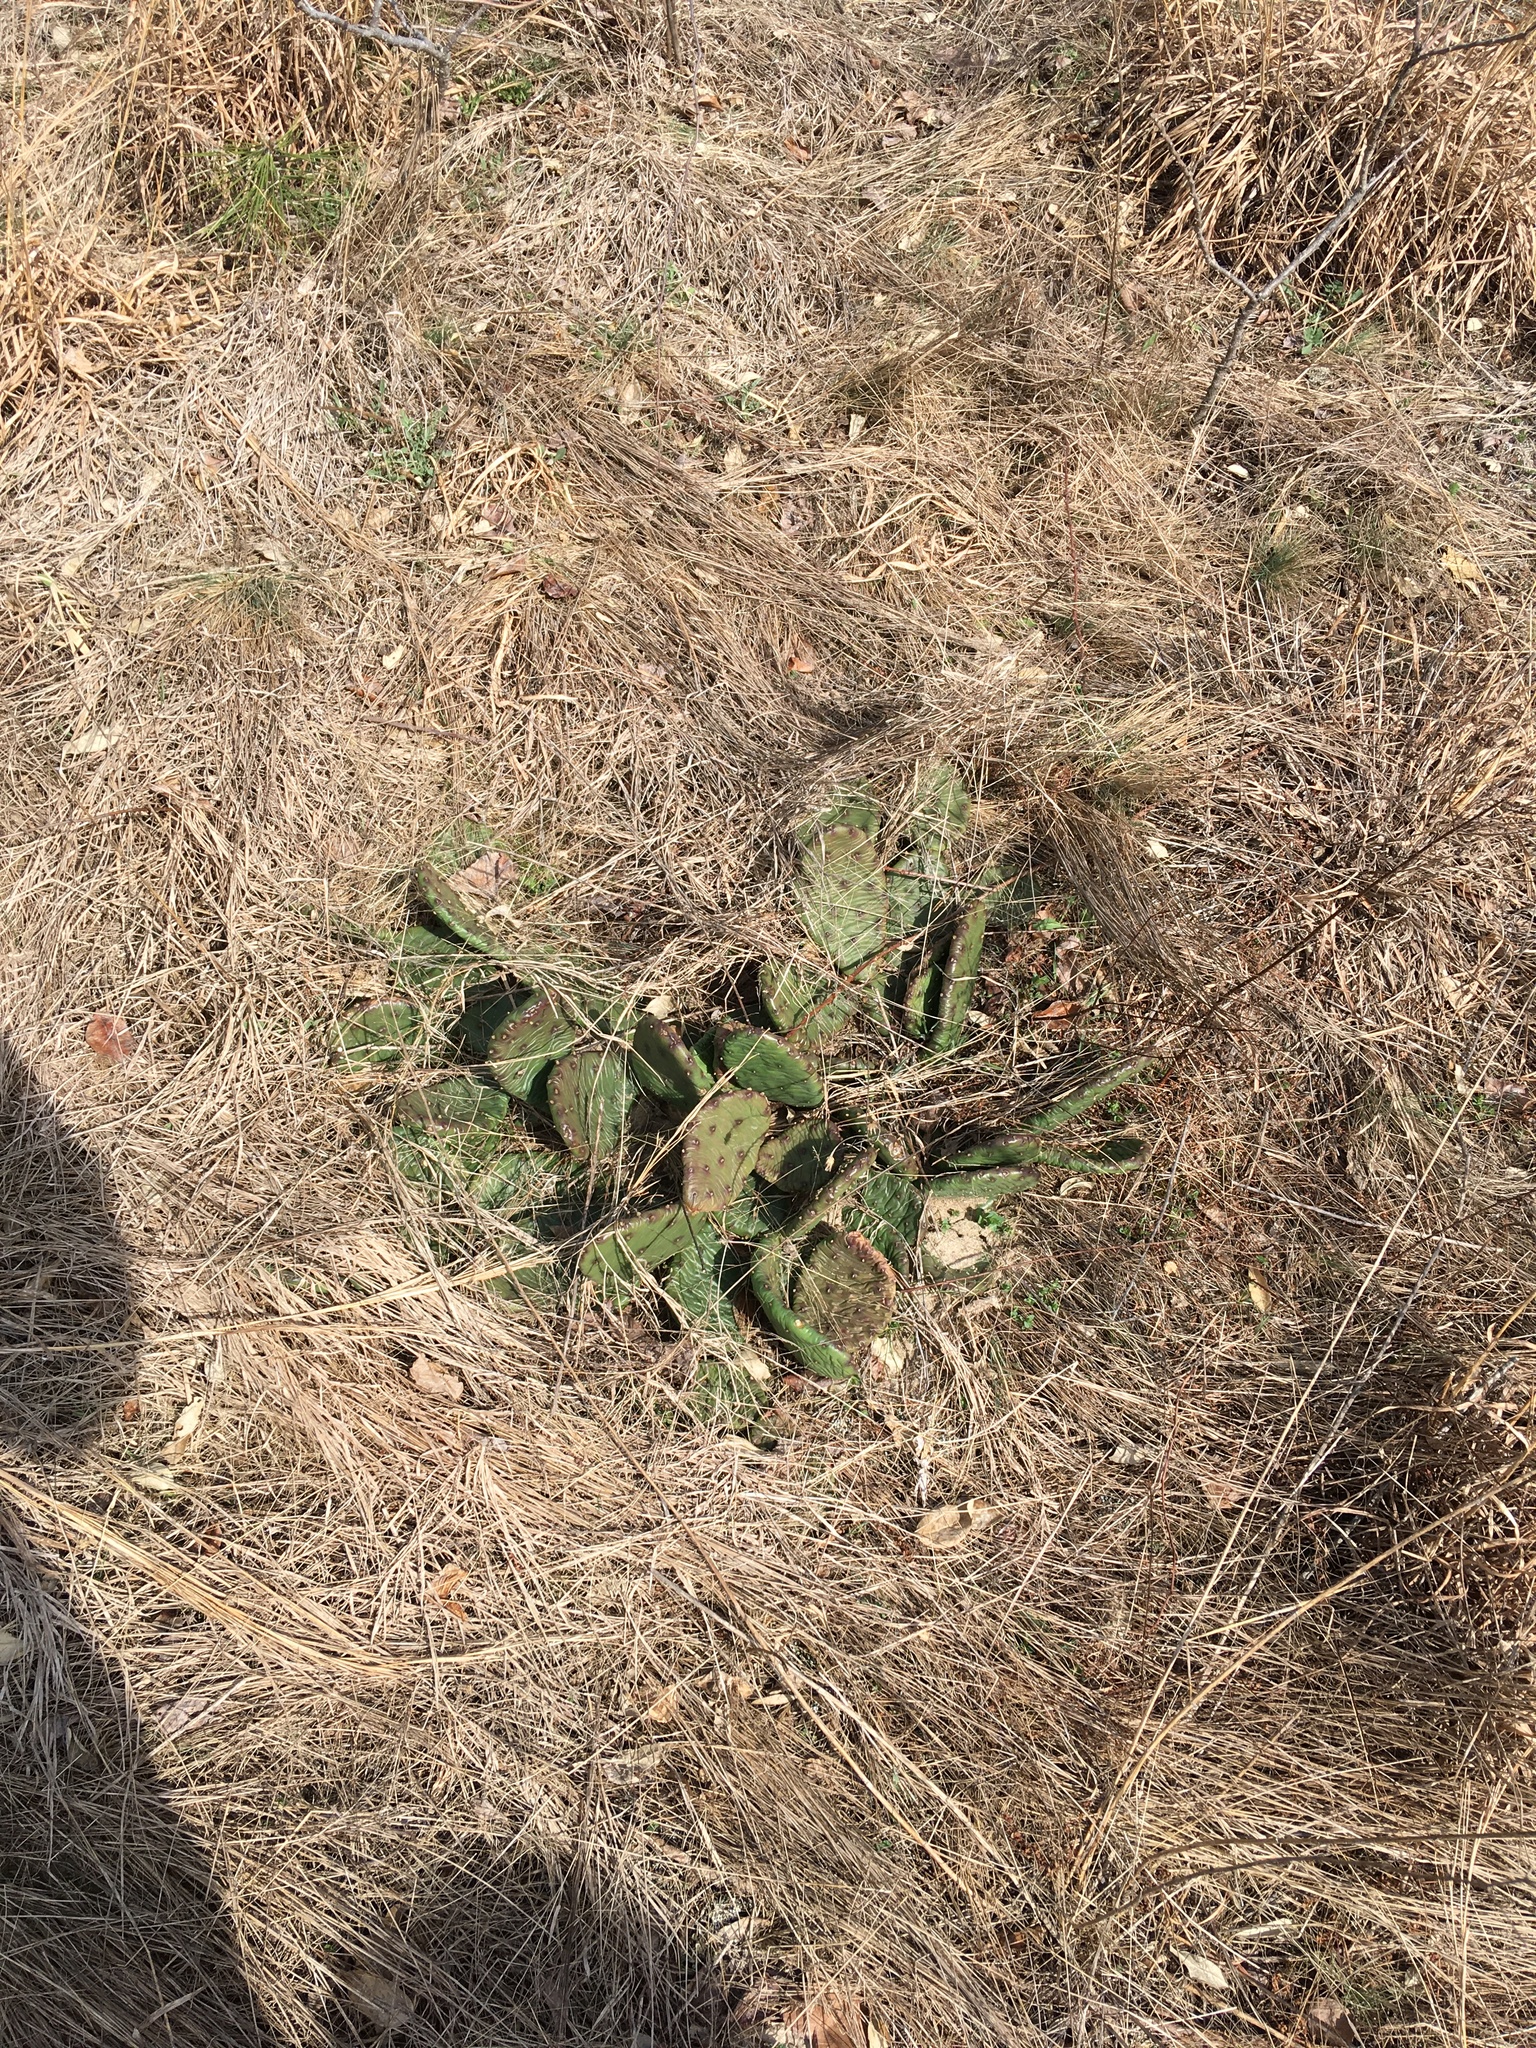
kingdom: Plantae
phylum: Tracheophyta
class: Magnoliopsida
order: Caryophyllales
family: Cactaceae
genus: Opuntia
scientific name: Opuntia humifusa
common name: Eastern prickly-pear
